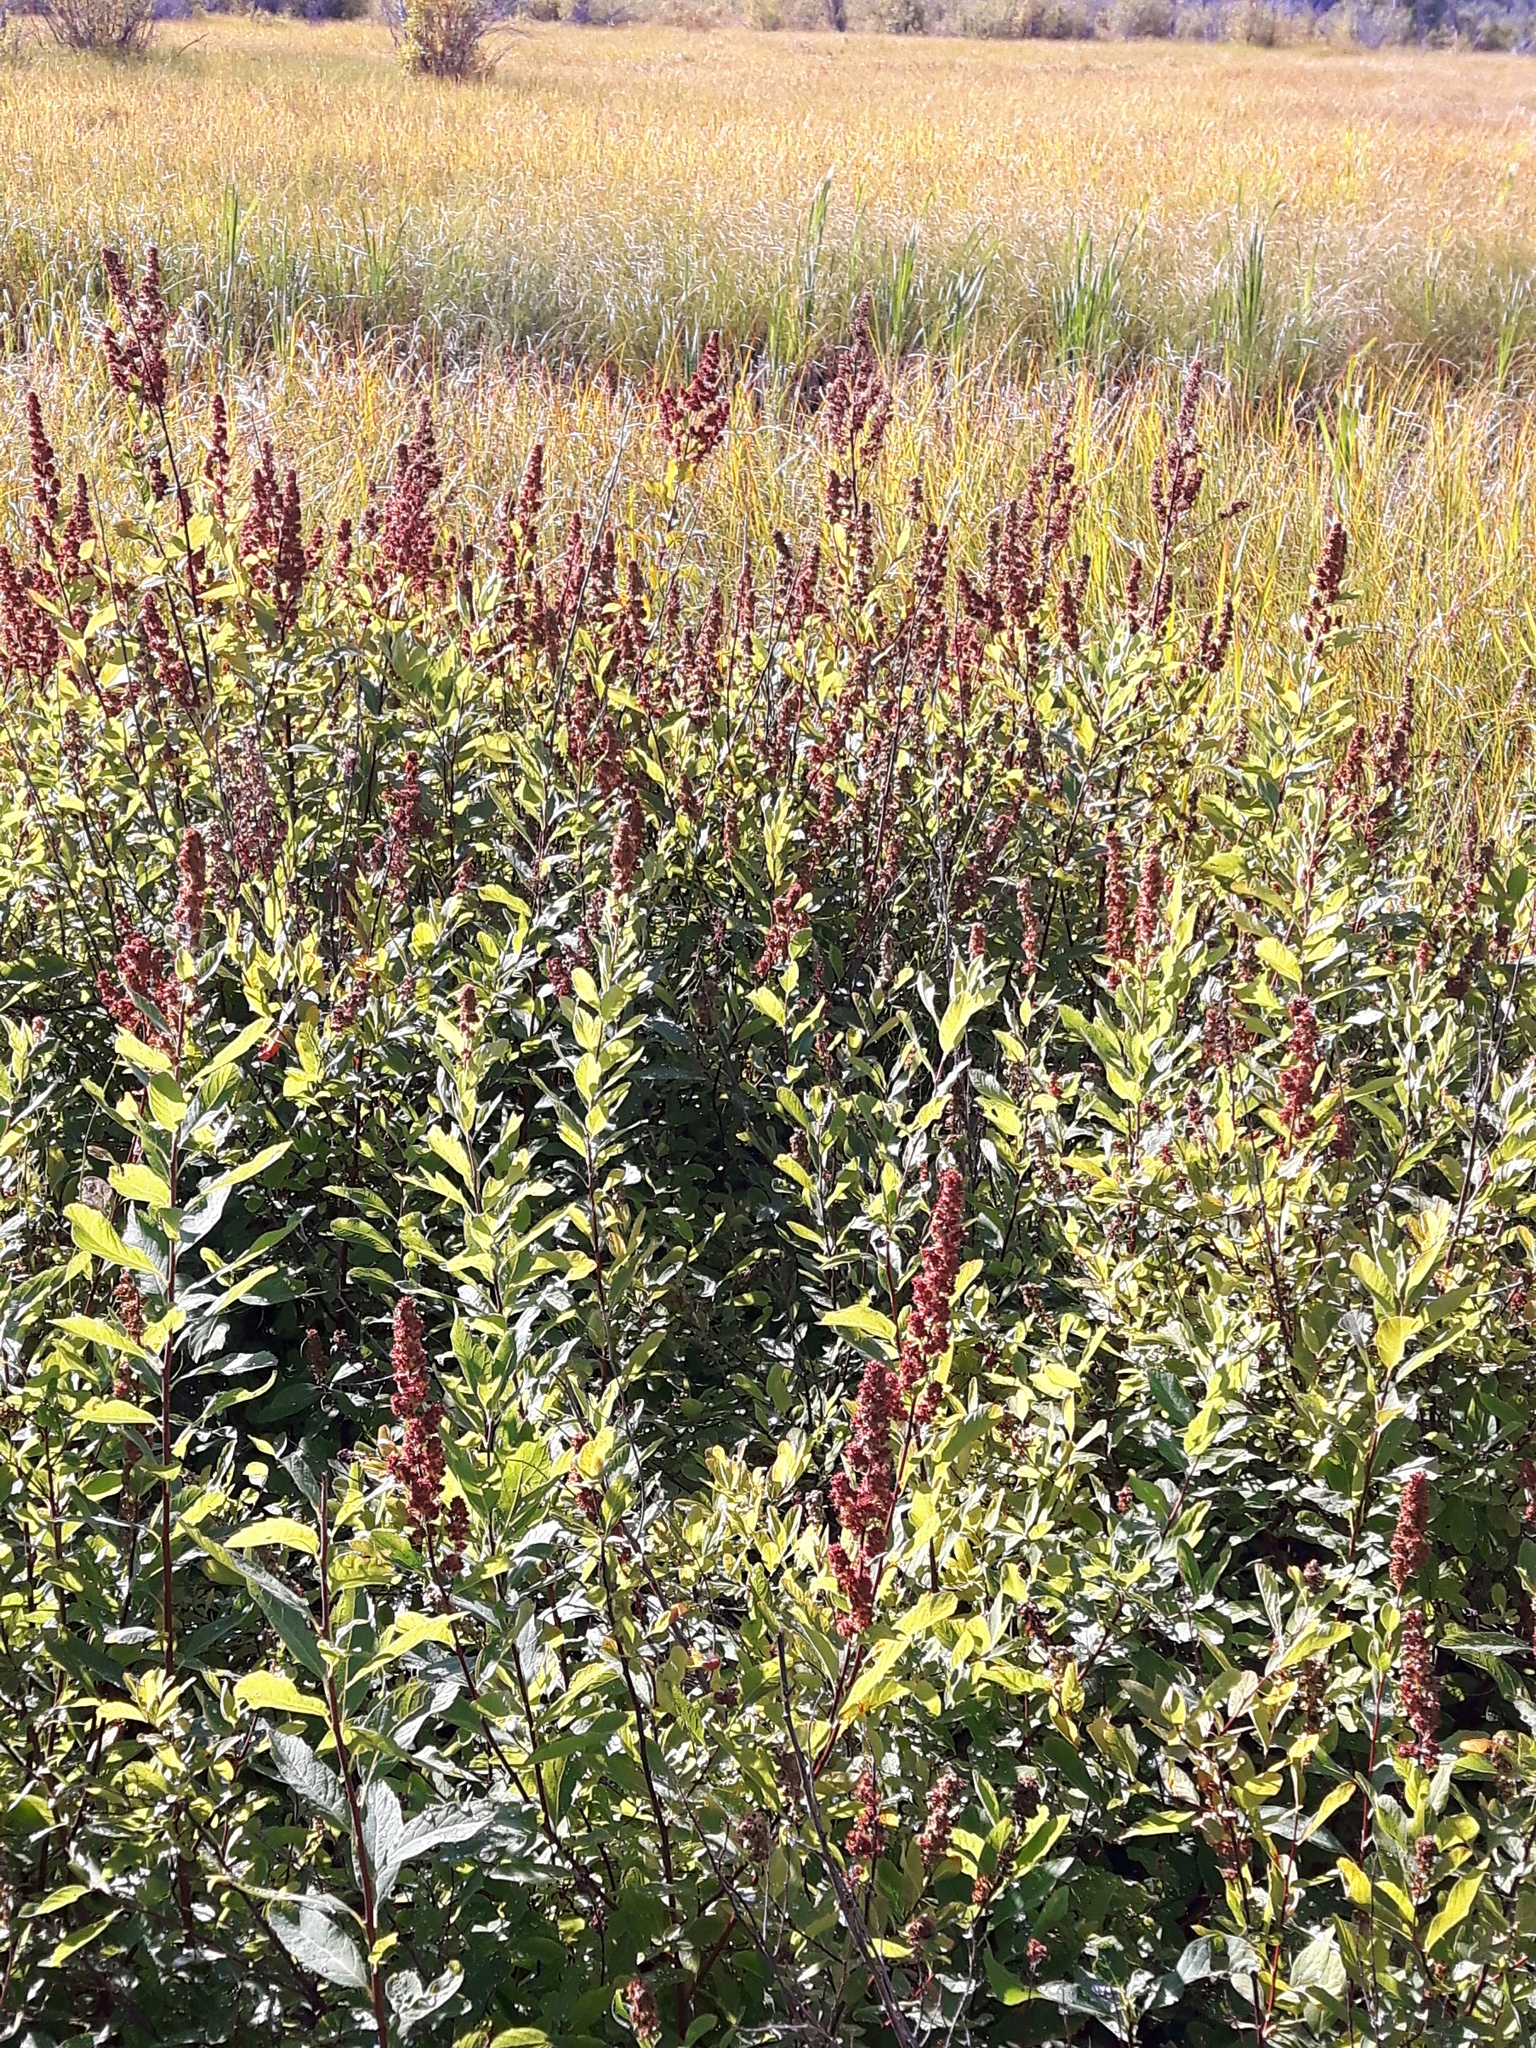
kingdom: Plantae
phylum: Tracheophyta
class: Magnoliopsida
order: Rosales
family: Rosaceae
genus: Spiraea
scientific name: Spiraea douglasii
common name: Steeplebush
